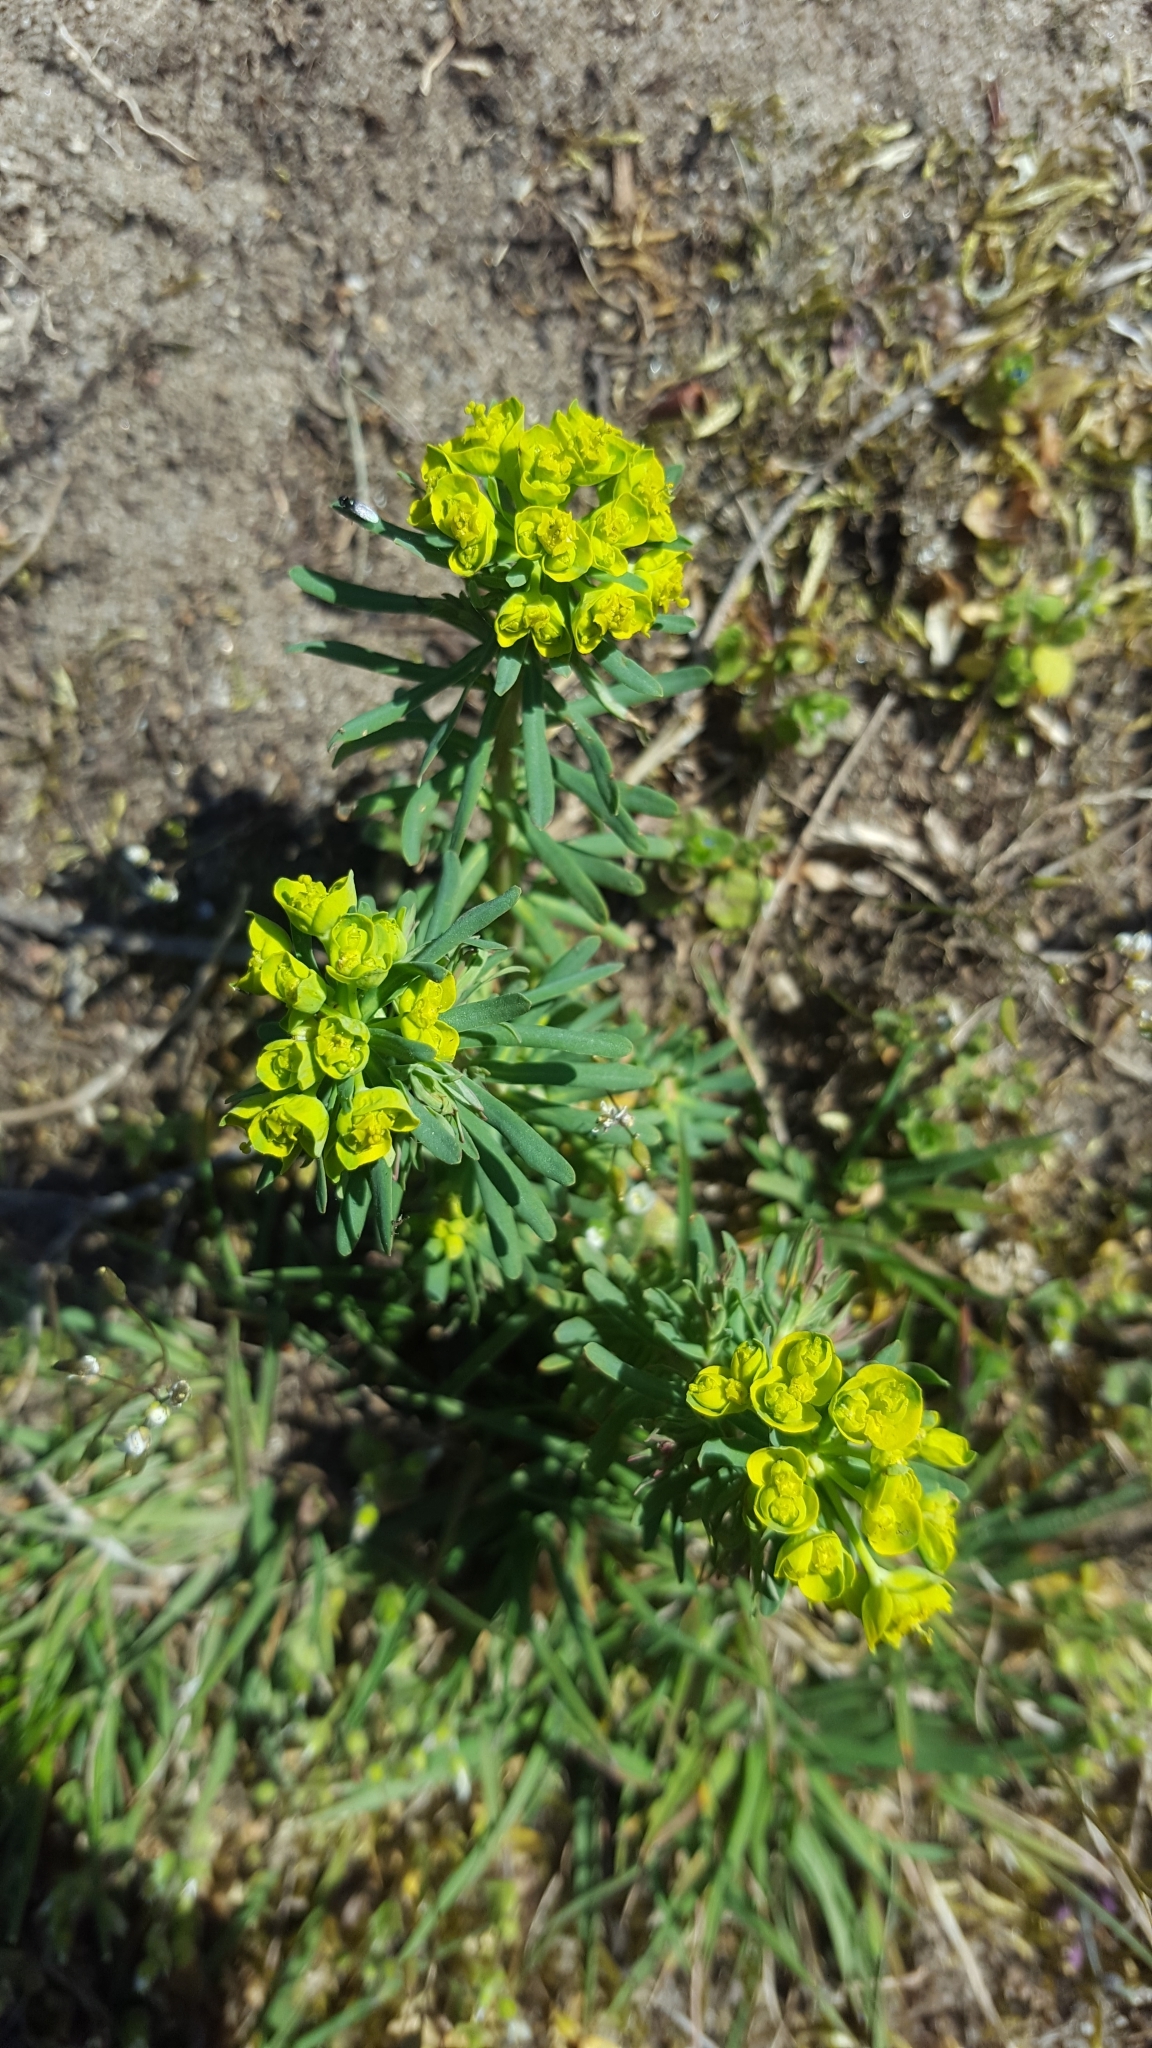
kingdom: Plantae
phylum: Tracheophyta
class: Magnoliopsida
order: Malpighiales
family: Euphorbiaceae
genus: Euphorbia
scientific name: Euphorbia cyparissias
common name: Cypress spurge
